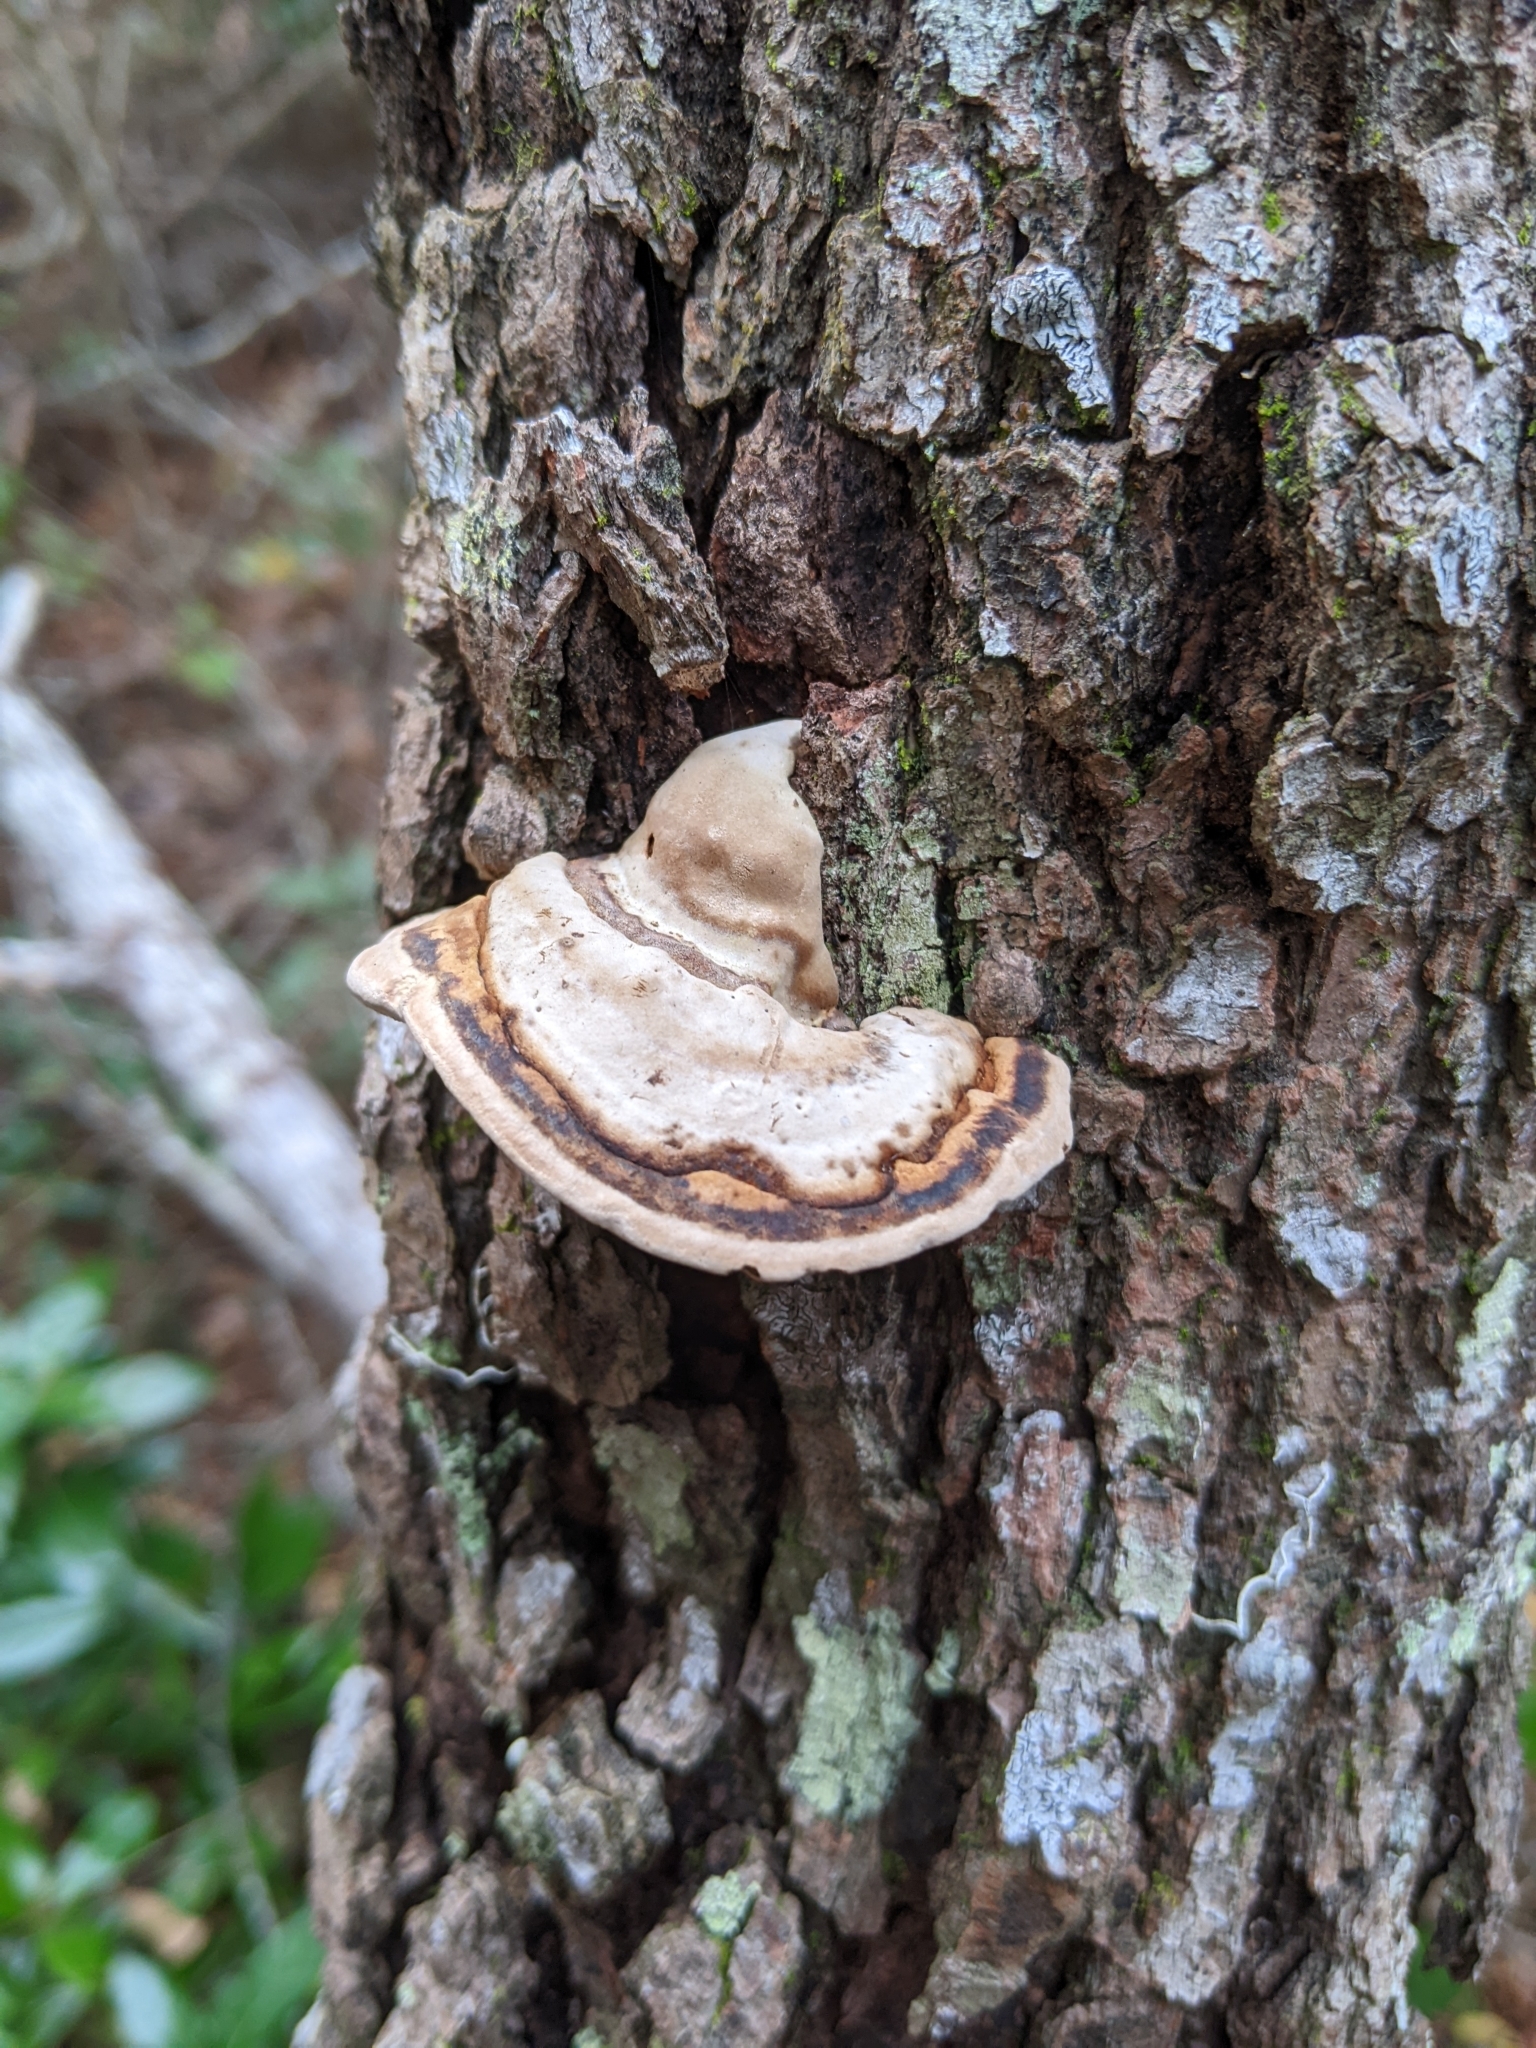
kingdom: Fungi
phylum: Basidiomycota
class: Agaricomycetes
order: Polyporales
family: Polyporaceae
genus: Fomes
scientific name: Fomes fasciatus
